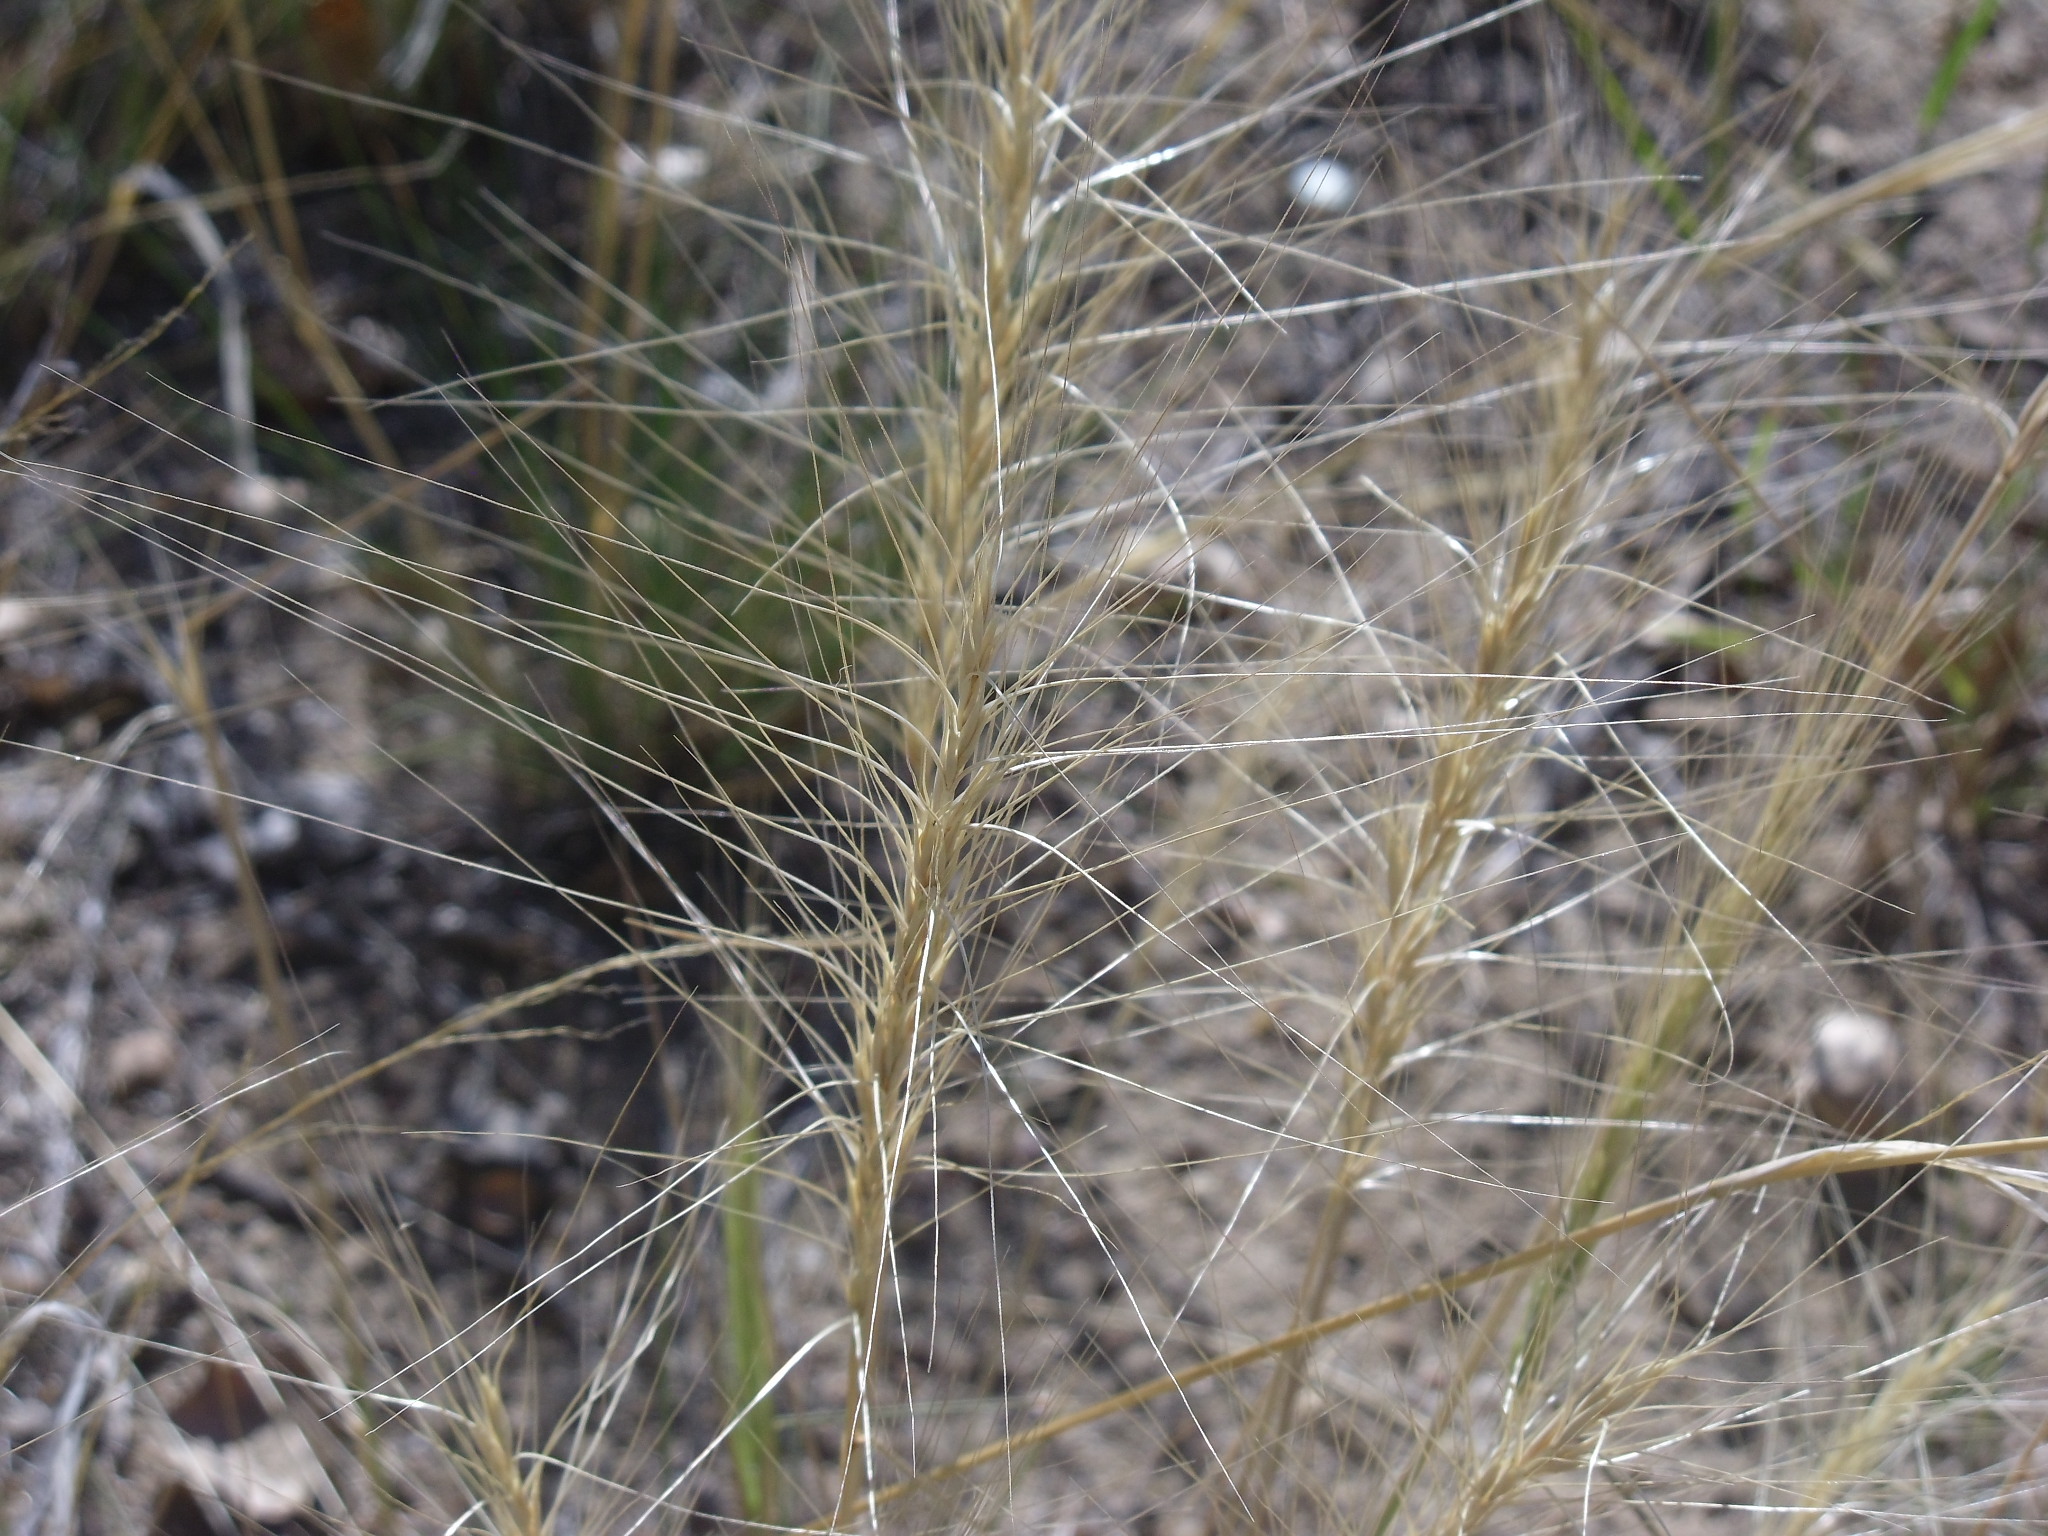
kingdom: Plantae
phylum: Tracheophyta
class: Liliopsida
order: Poales
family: Poaceae
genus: Elymus
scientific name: Elymus elymoides
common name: Bottlebrush squirreltail
